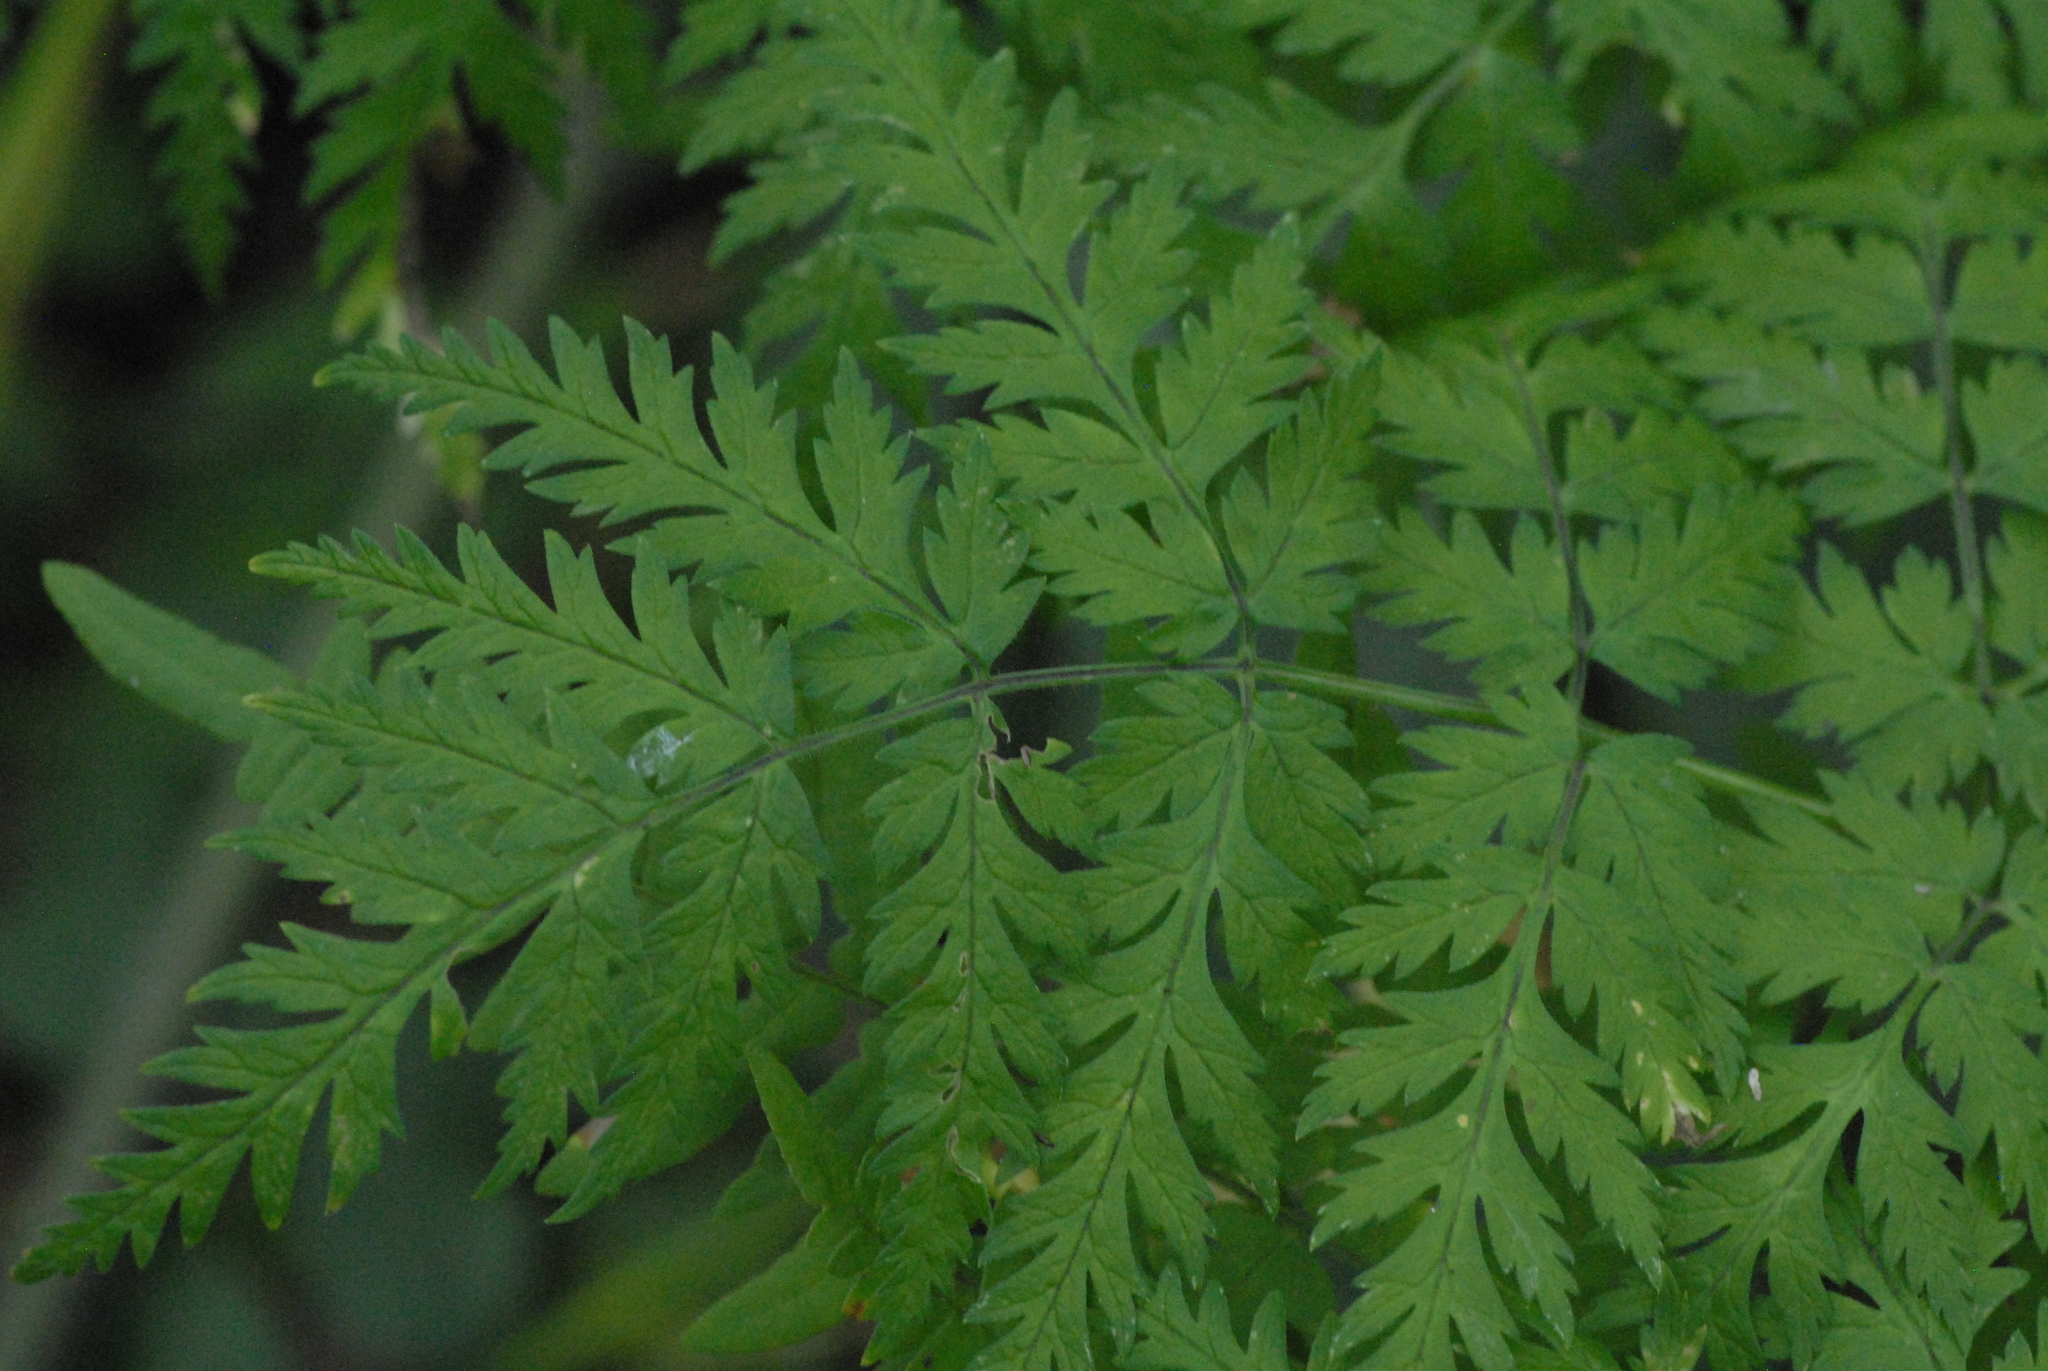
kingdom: Plantae
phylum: Tracheophyta
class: Magnoliopsida
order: Apiales
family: Apiaceae
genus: Anthriscus
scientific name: Anthriscus sylvestris
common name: Cow parsley
